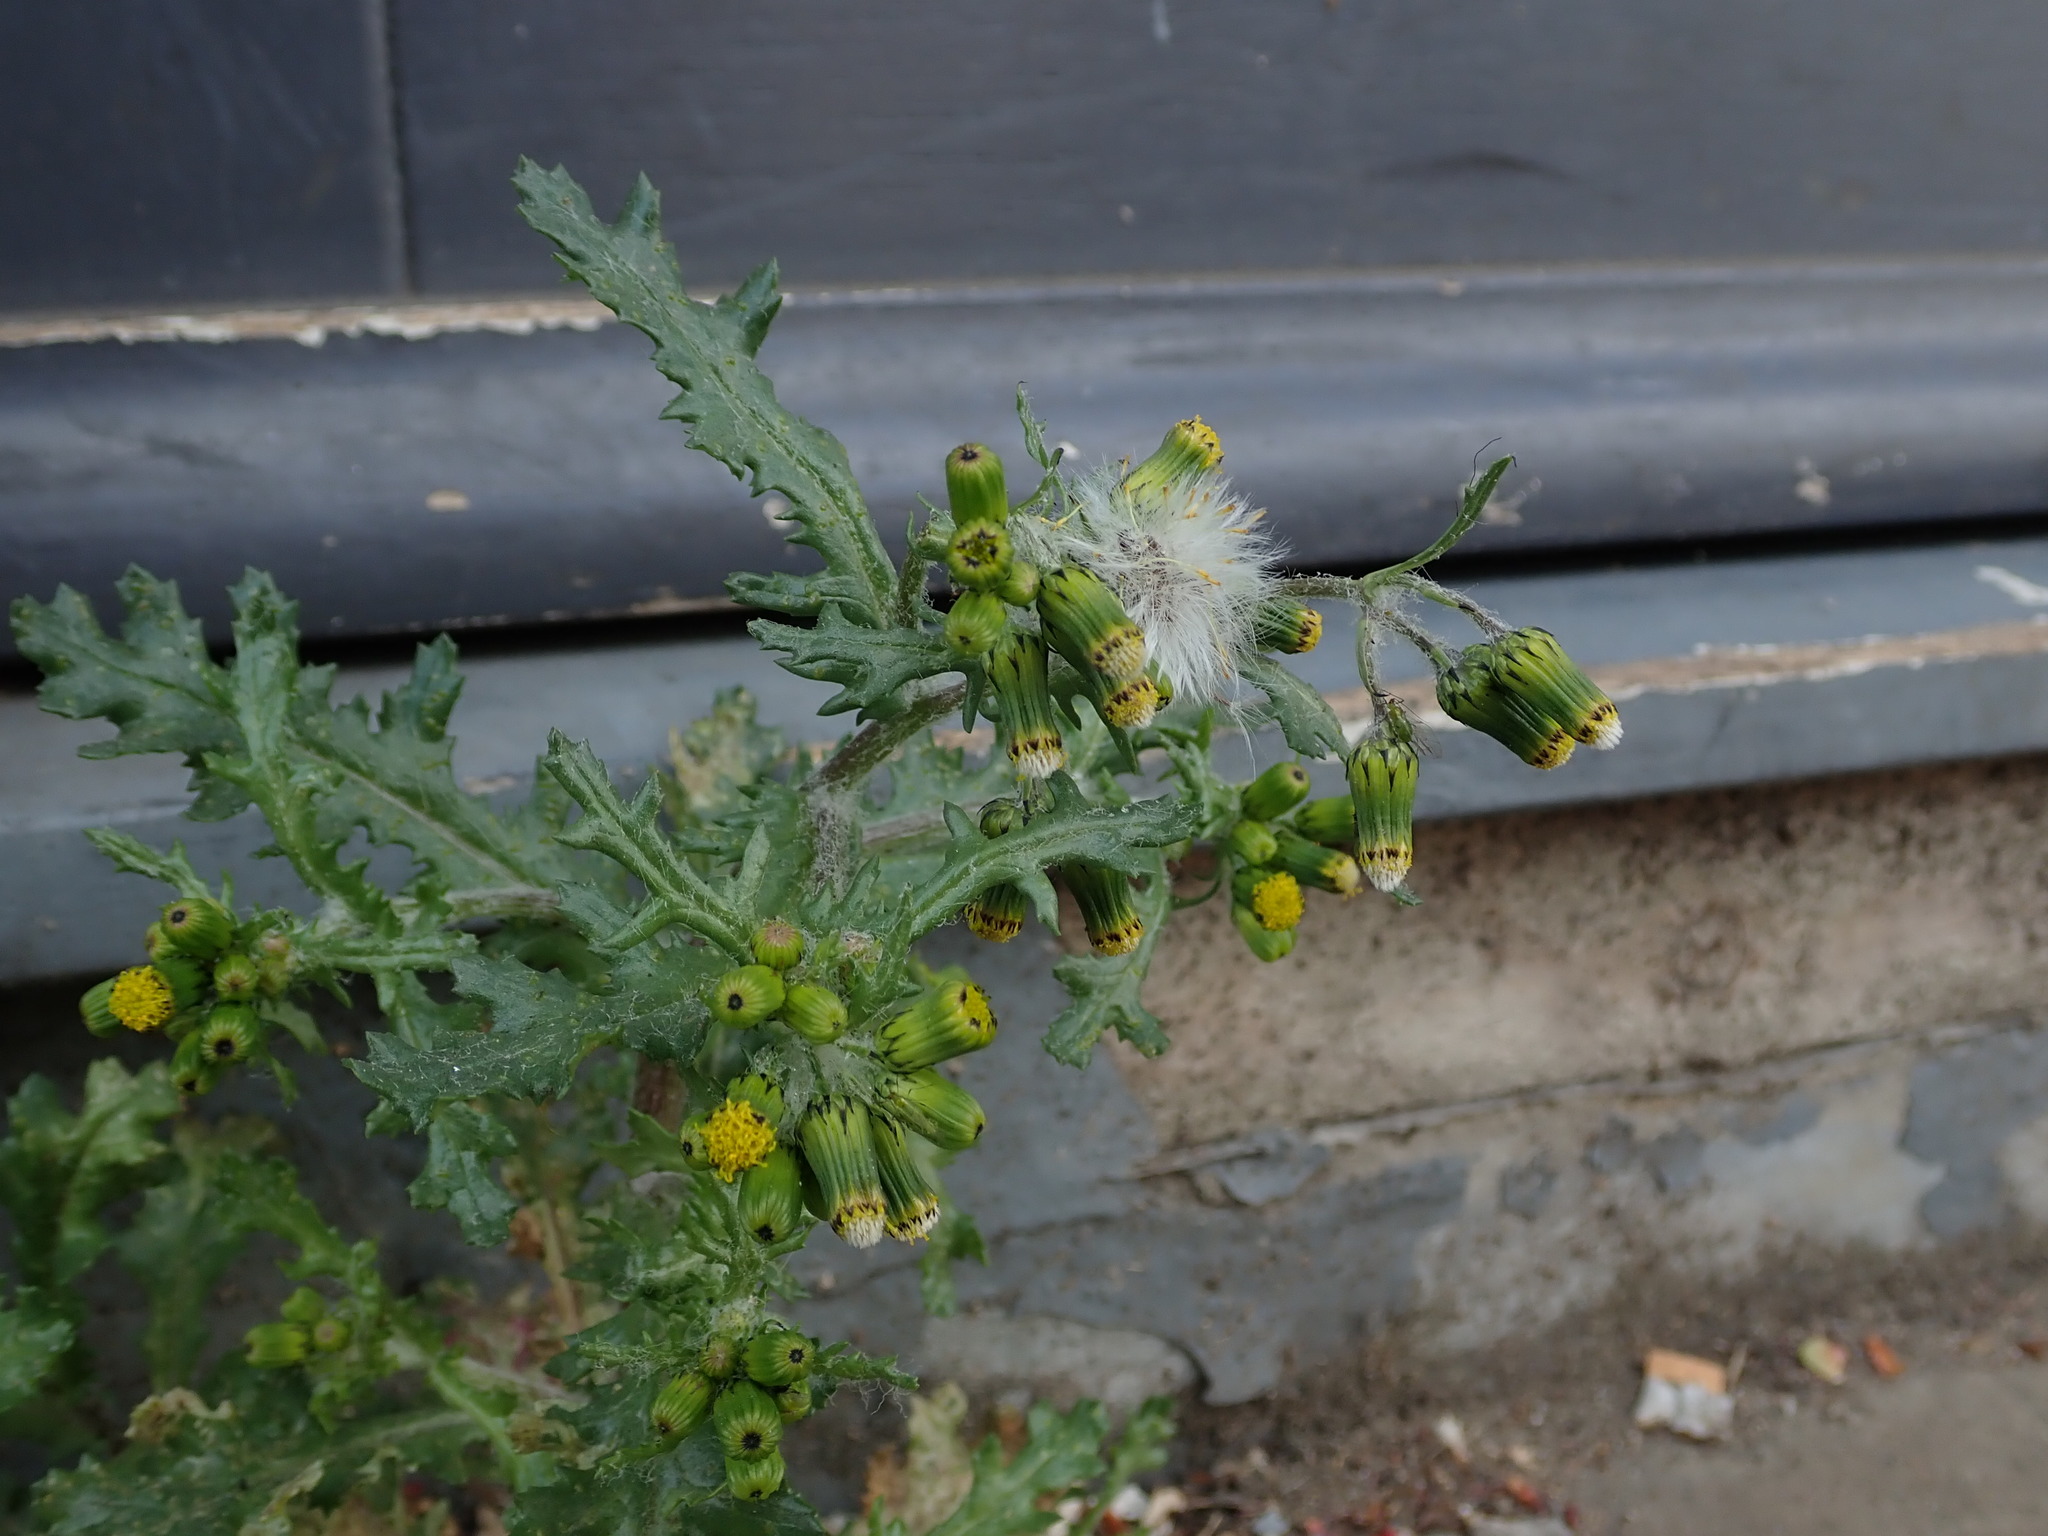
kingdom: Plantae
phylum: Tracheophyta
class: Magnoliopsida
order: Asterales
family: Asteraceae
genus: Senecio
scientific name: Senecio vulgaris
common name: Old-man-in-the-spring
